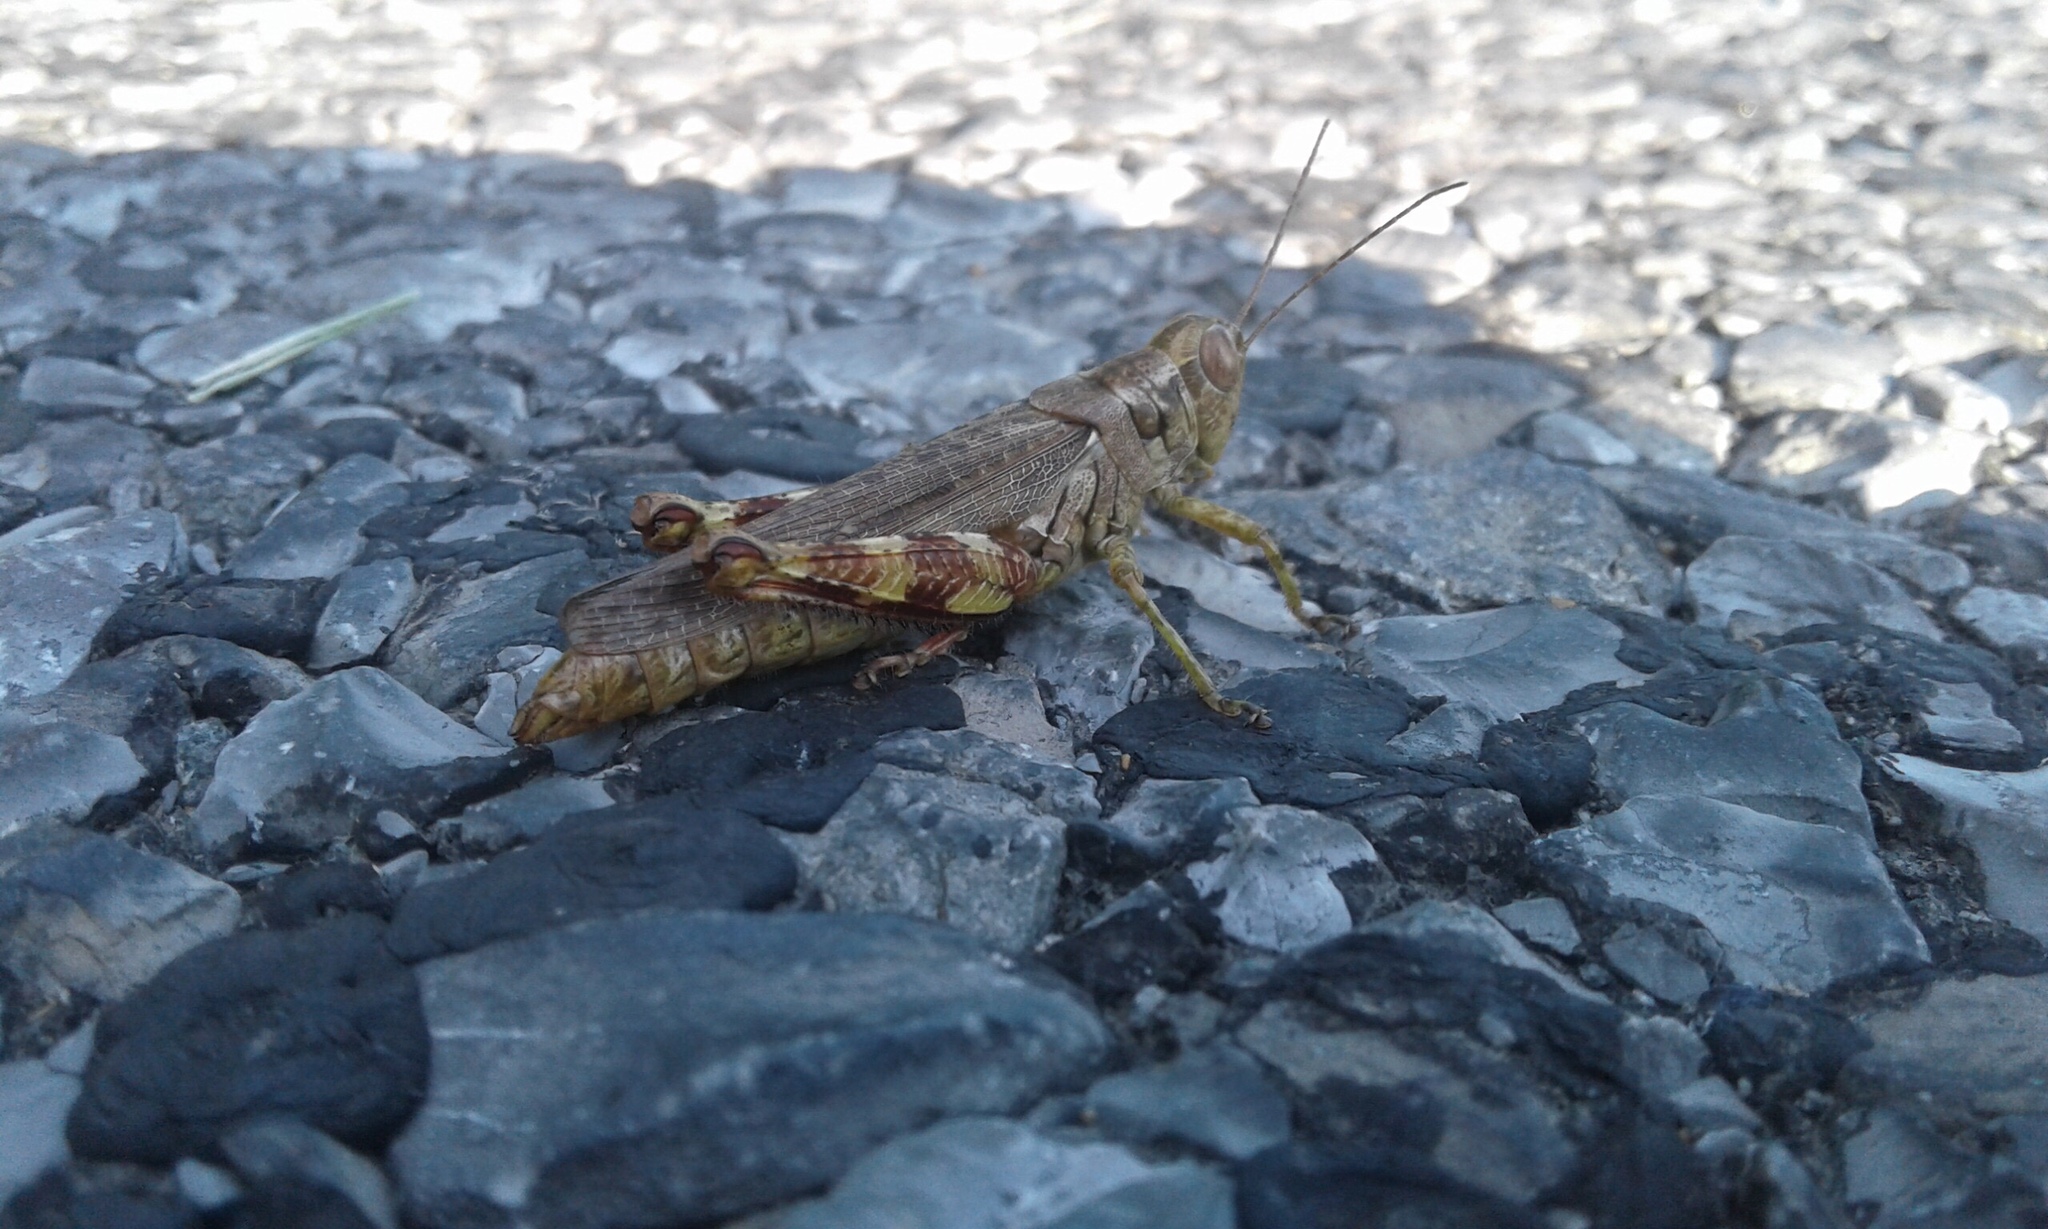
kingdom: Animalia
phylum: Arthropoda
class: Insecta
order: Orthoptera
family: Acrididae
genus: Melanoplus
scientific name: Melanoplus punctulatus
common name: Pine-tree spur-throat grasshopper
